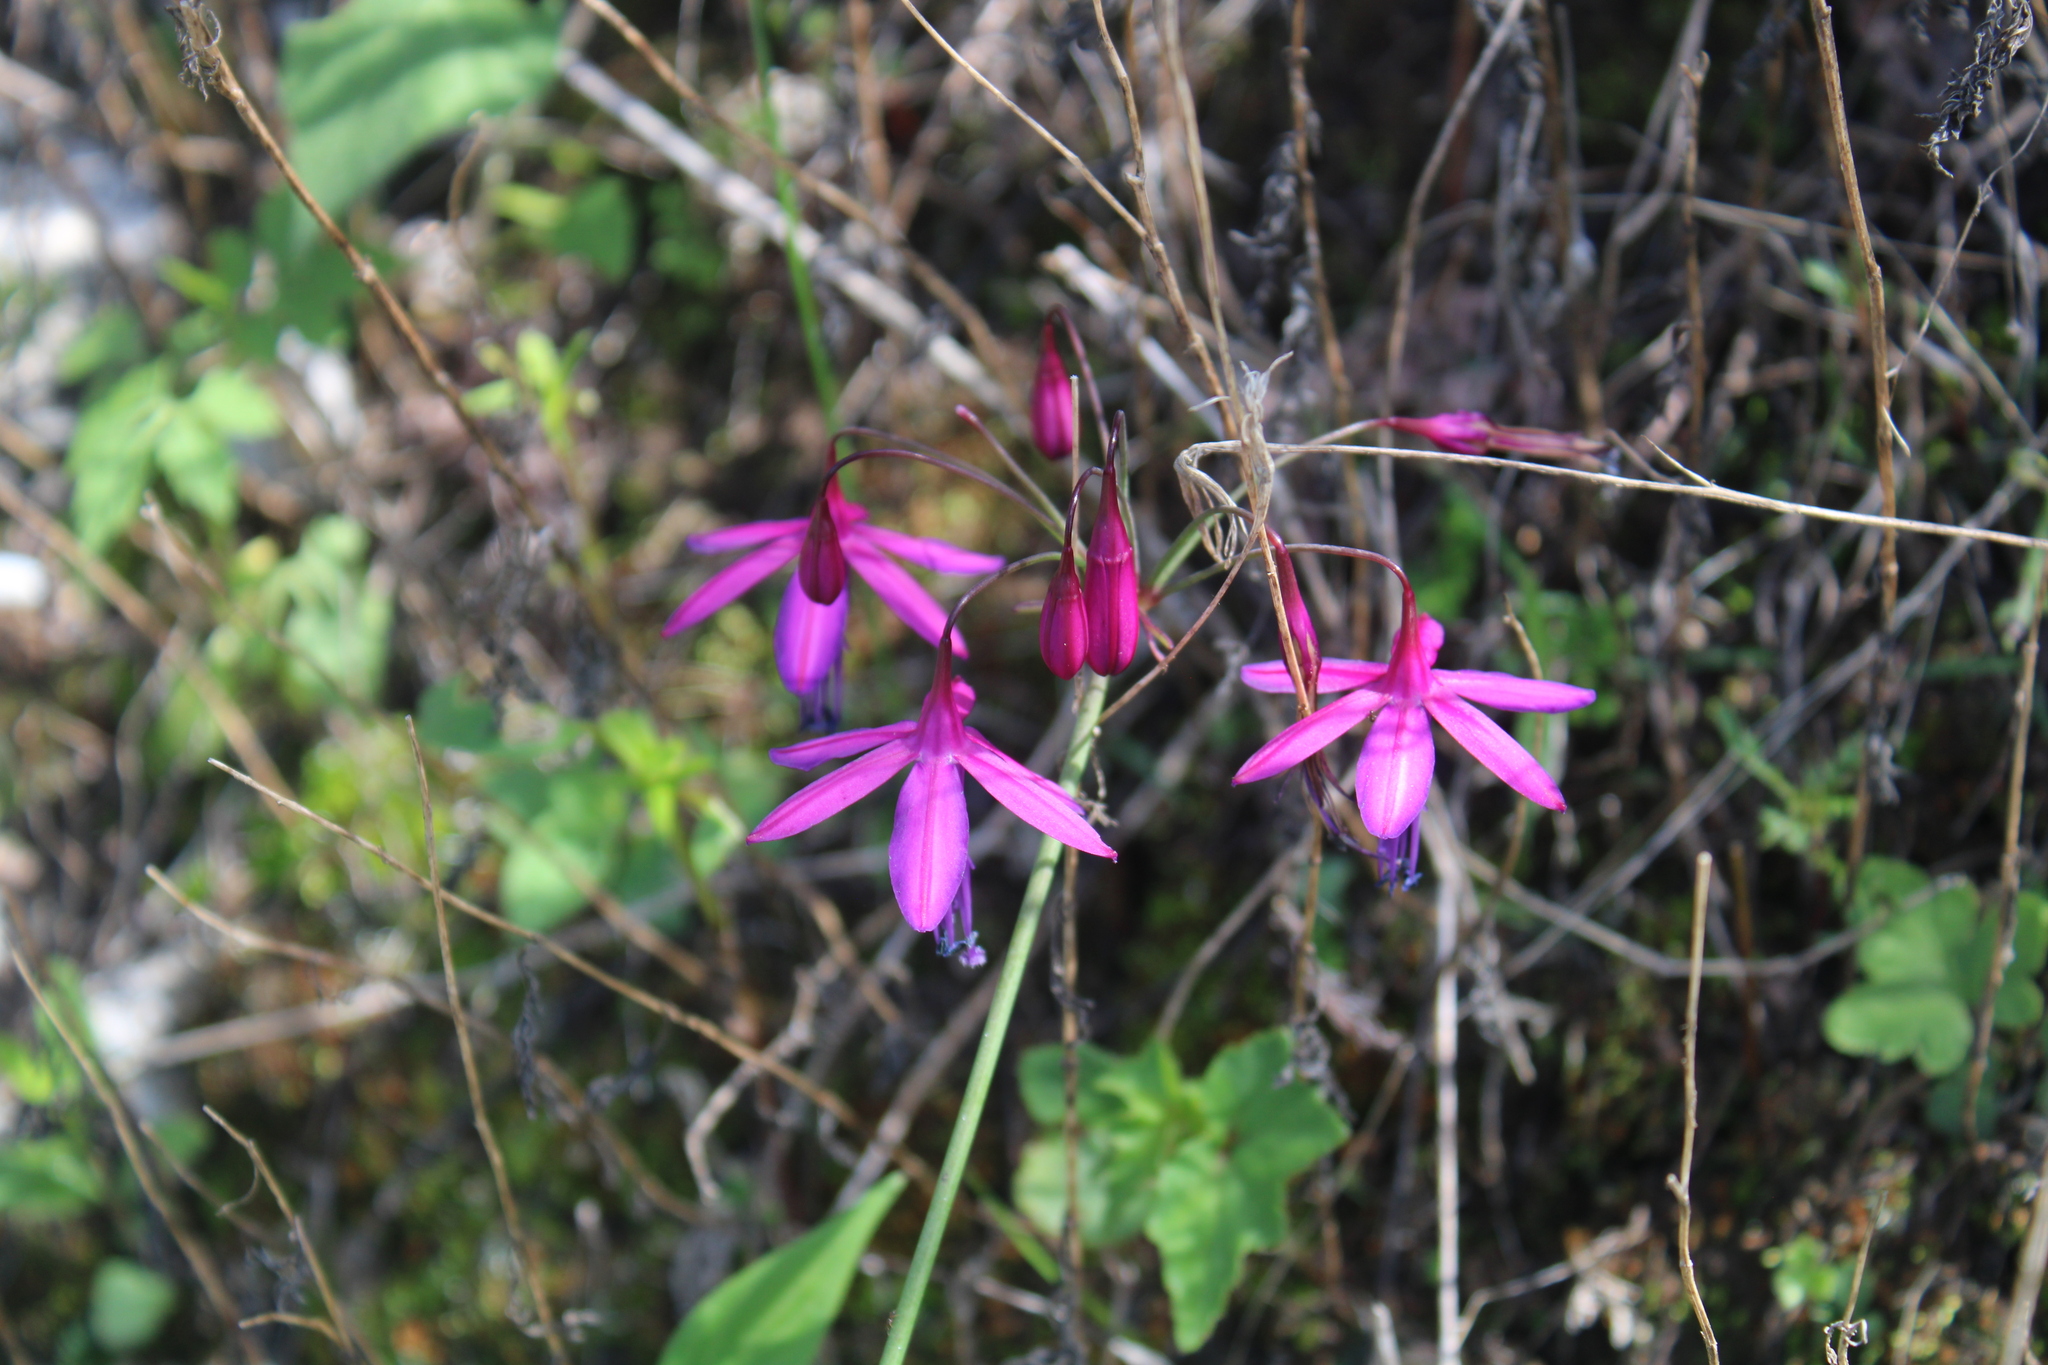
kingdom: Plantae
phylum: Tracheophyta
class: Liliopsida
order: Asparagales
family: Amaryllidaceae
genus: Bessera
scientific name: Bessera ramirezii
